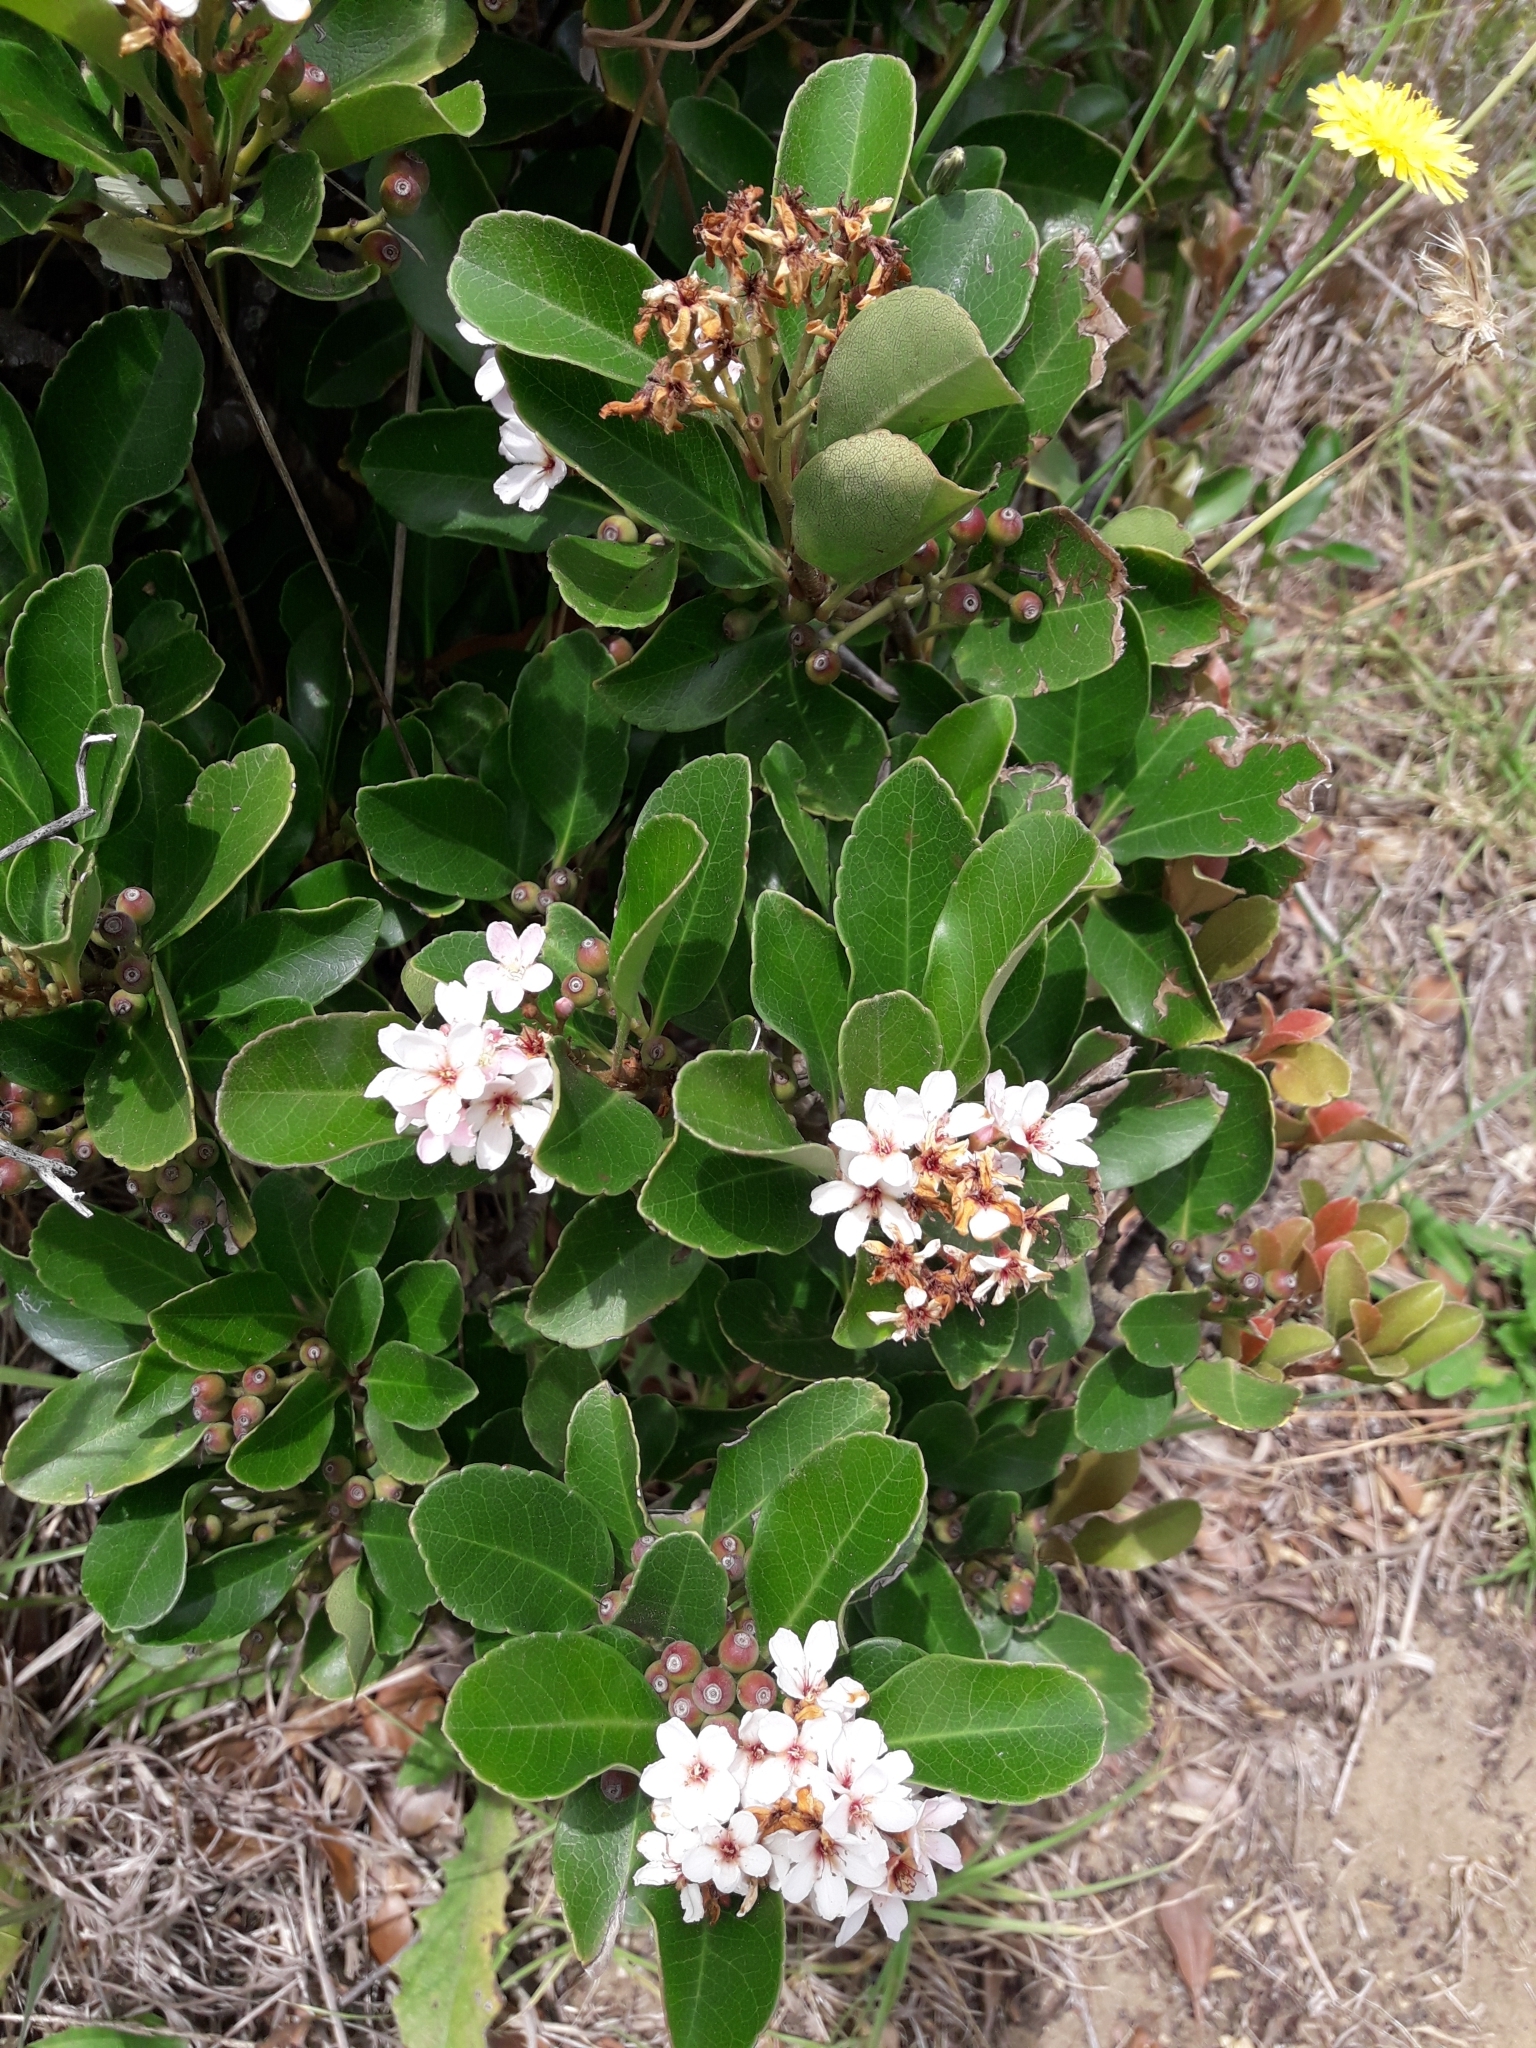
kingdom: Plantae
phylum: Tracheophyta
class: Magnoliopsida
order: Rosales
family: Rosaceae
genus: Rhaphiolepis
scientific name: Rhaphiolepis umbellata
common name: Yedda-hawthorn
